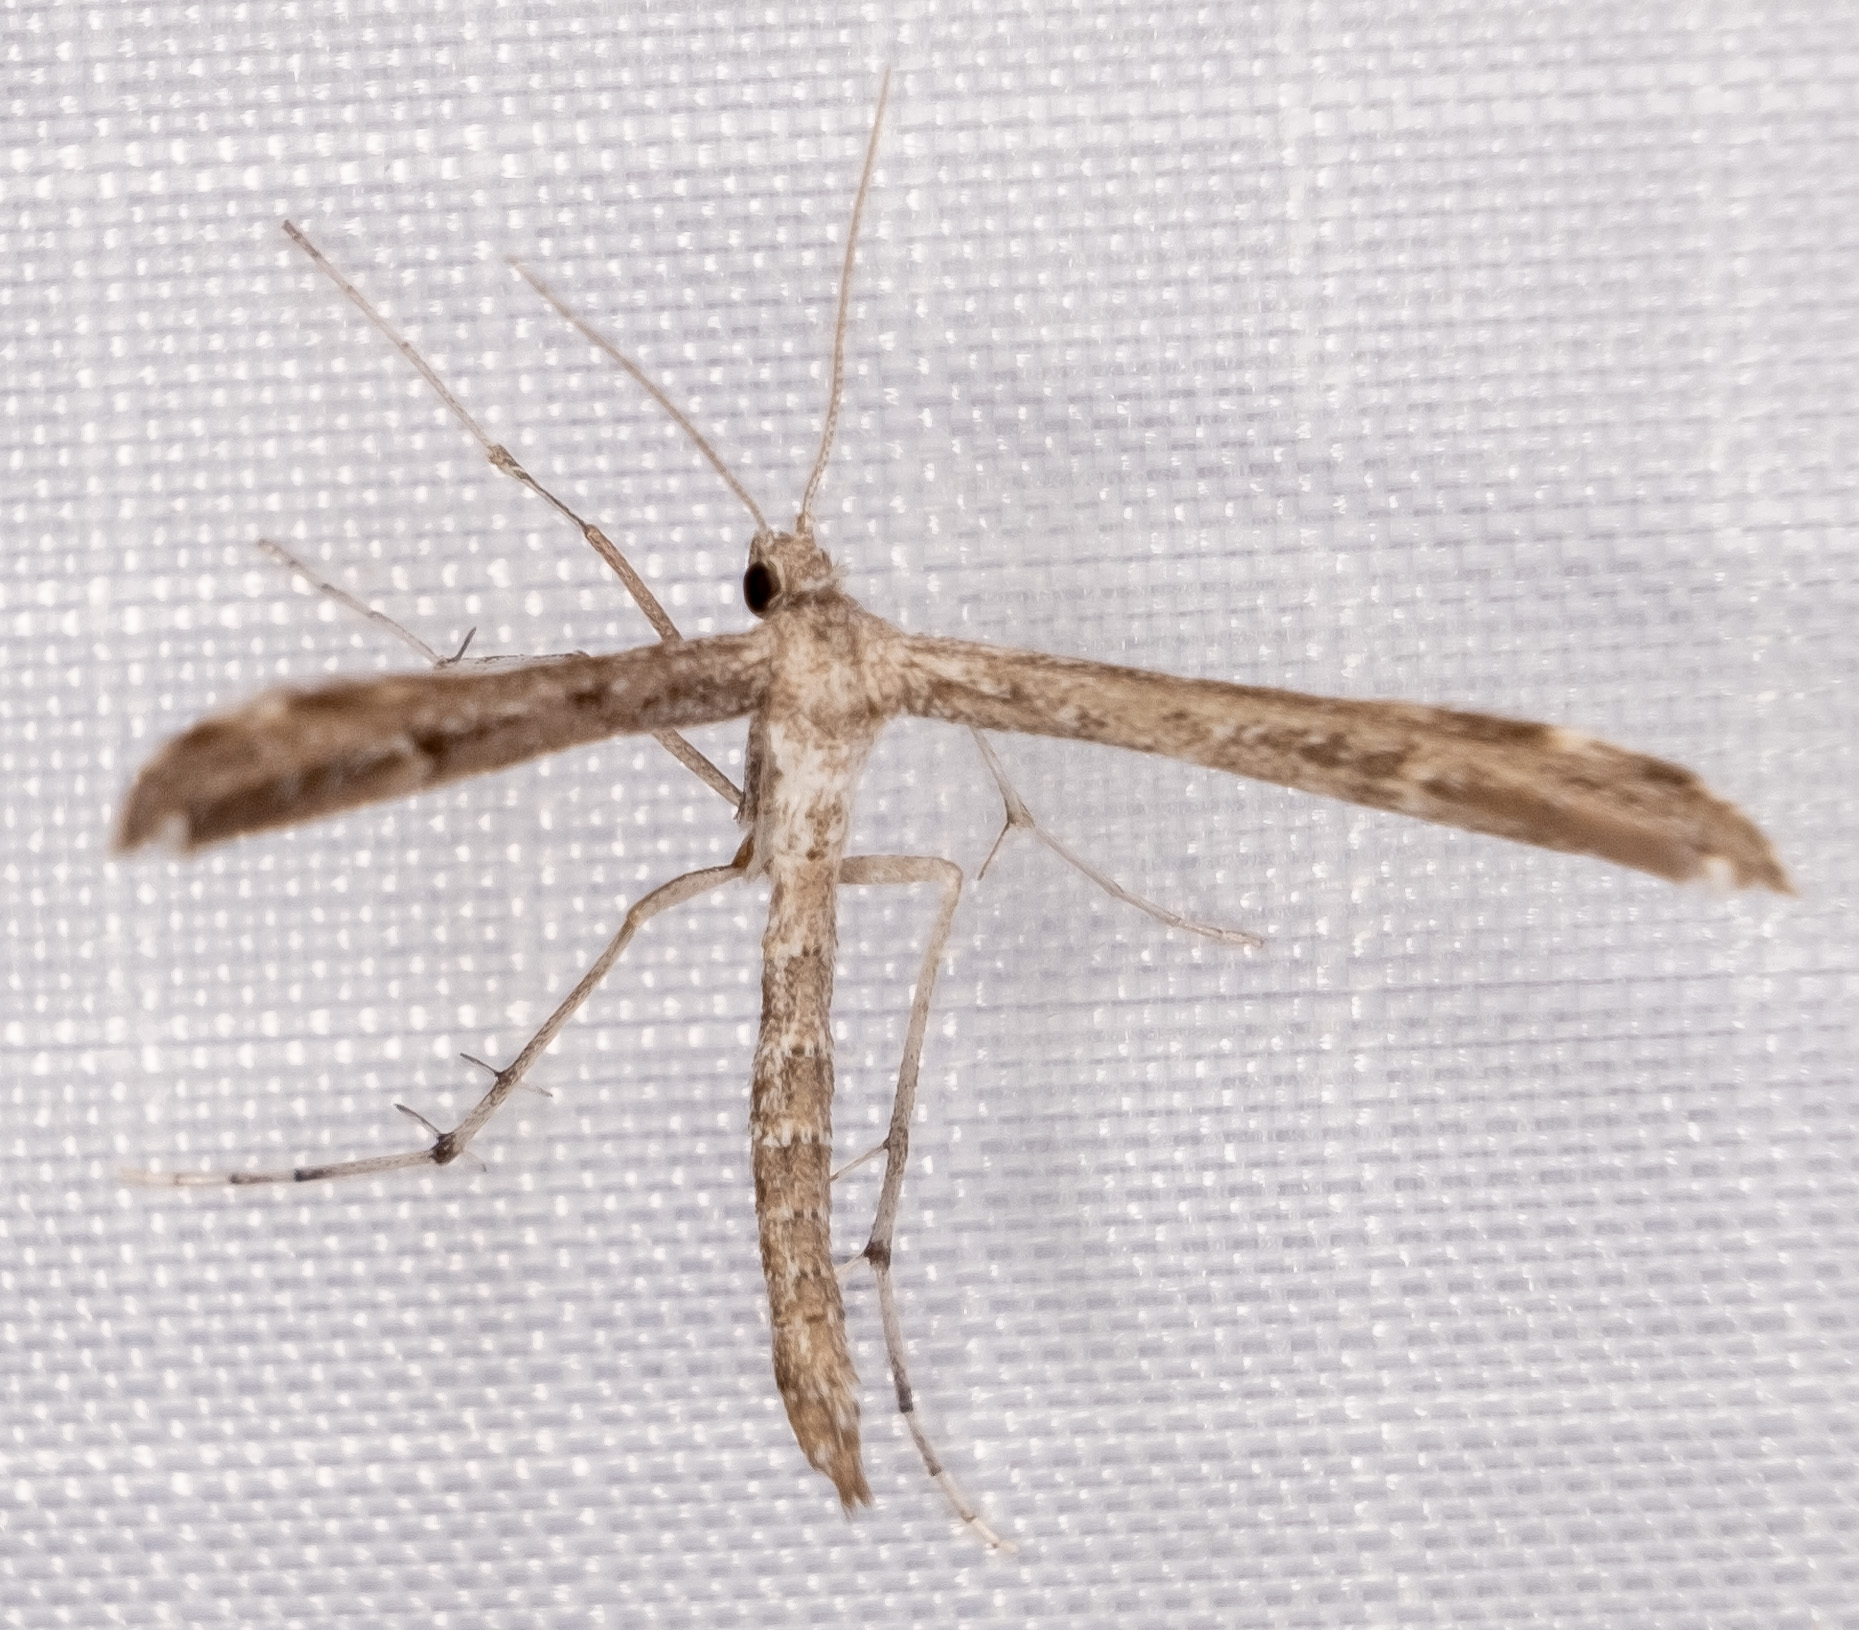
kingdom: Animalia
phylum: Arthropoda
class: Insecta
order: Lepidoptera
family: Pterophoridae
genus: Hellinsia
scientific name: Hellinsia inquinatus
